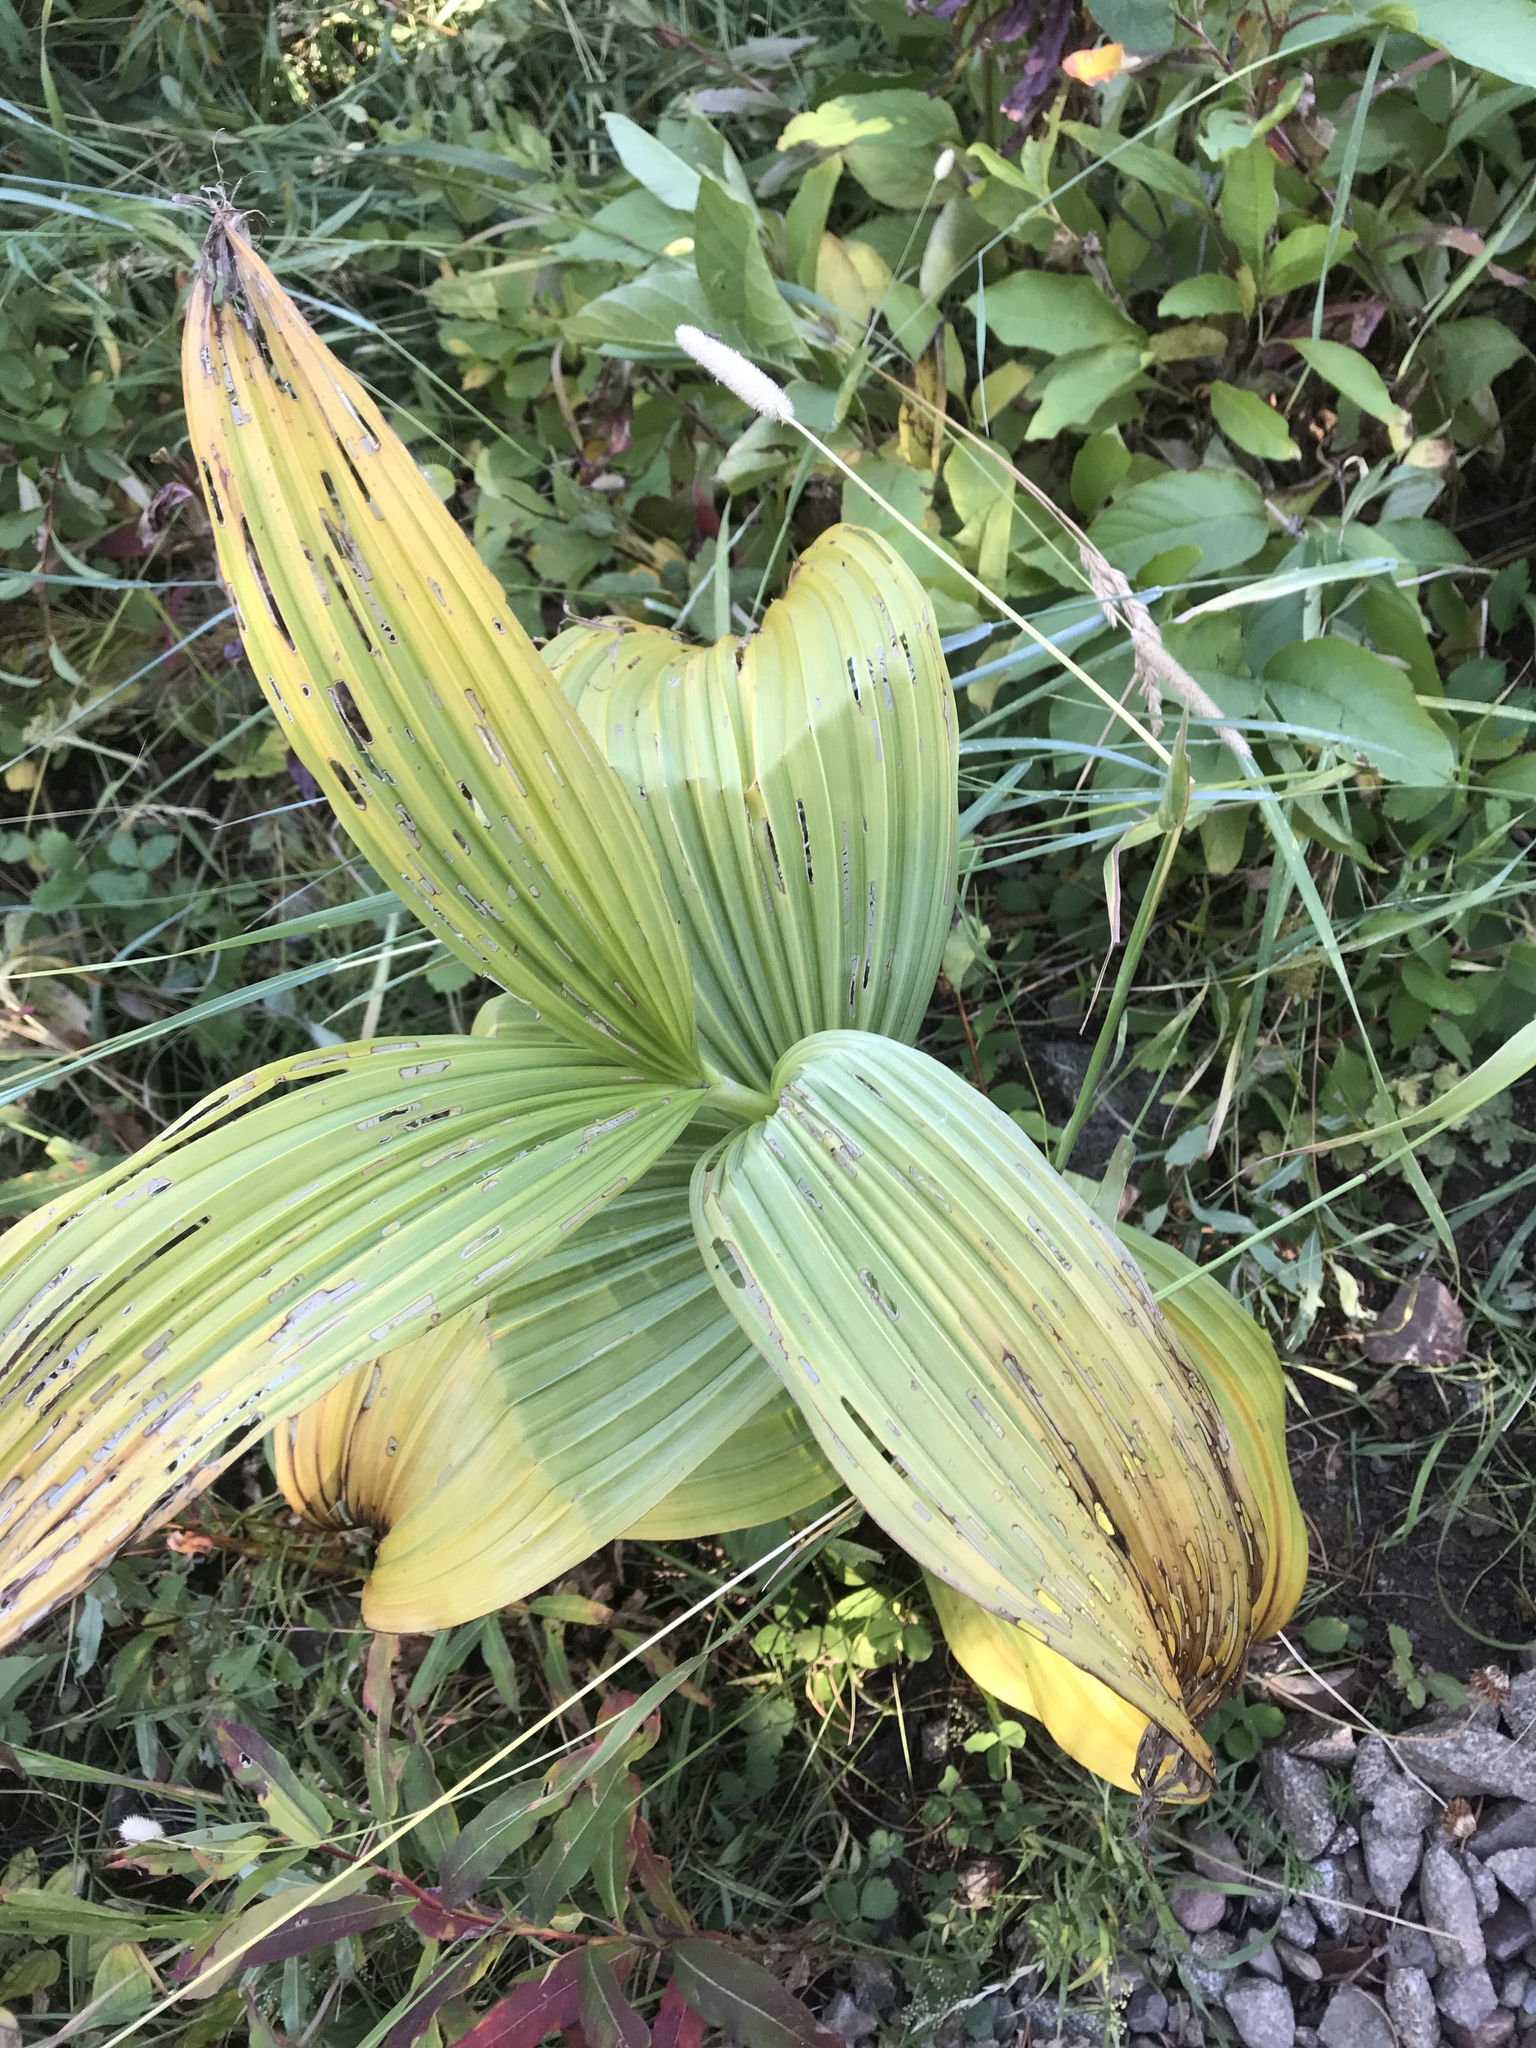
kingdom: Plantae
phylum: Tracheophyta
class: Liliopsida
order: Liliales
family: Melanthiaceae
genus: Veratrum
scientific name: Veratrum viride
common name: American false hellebore
